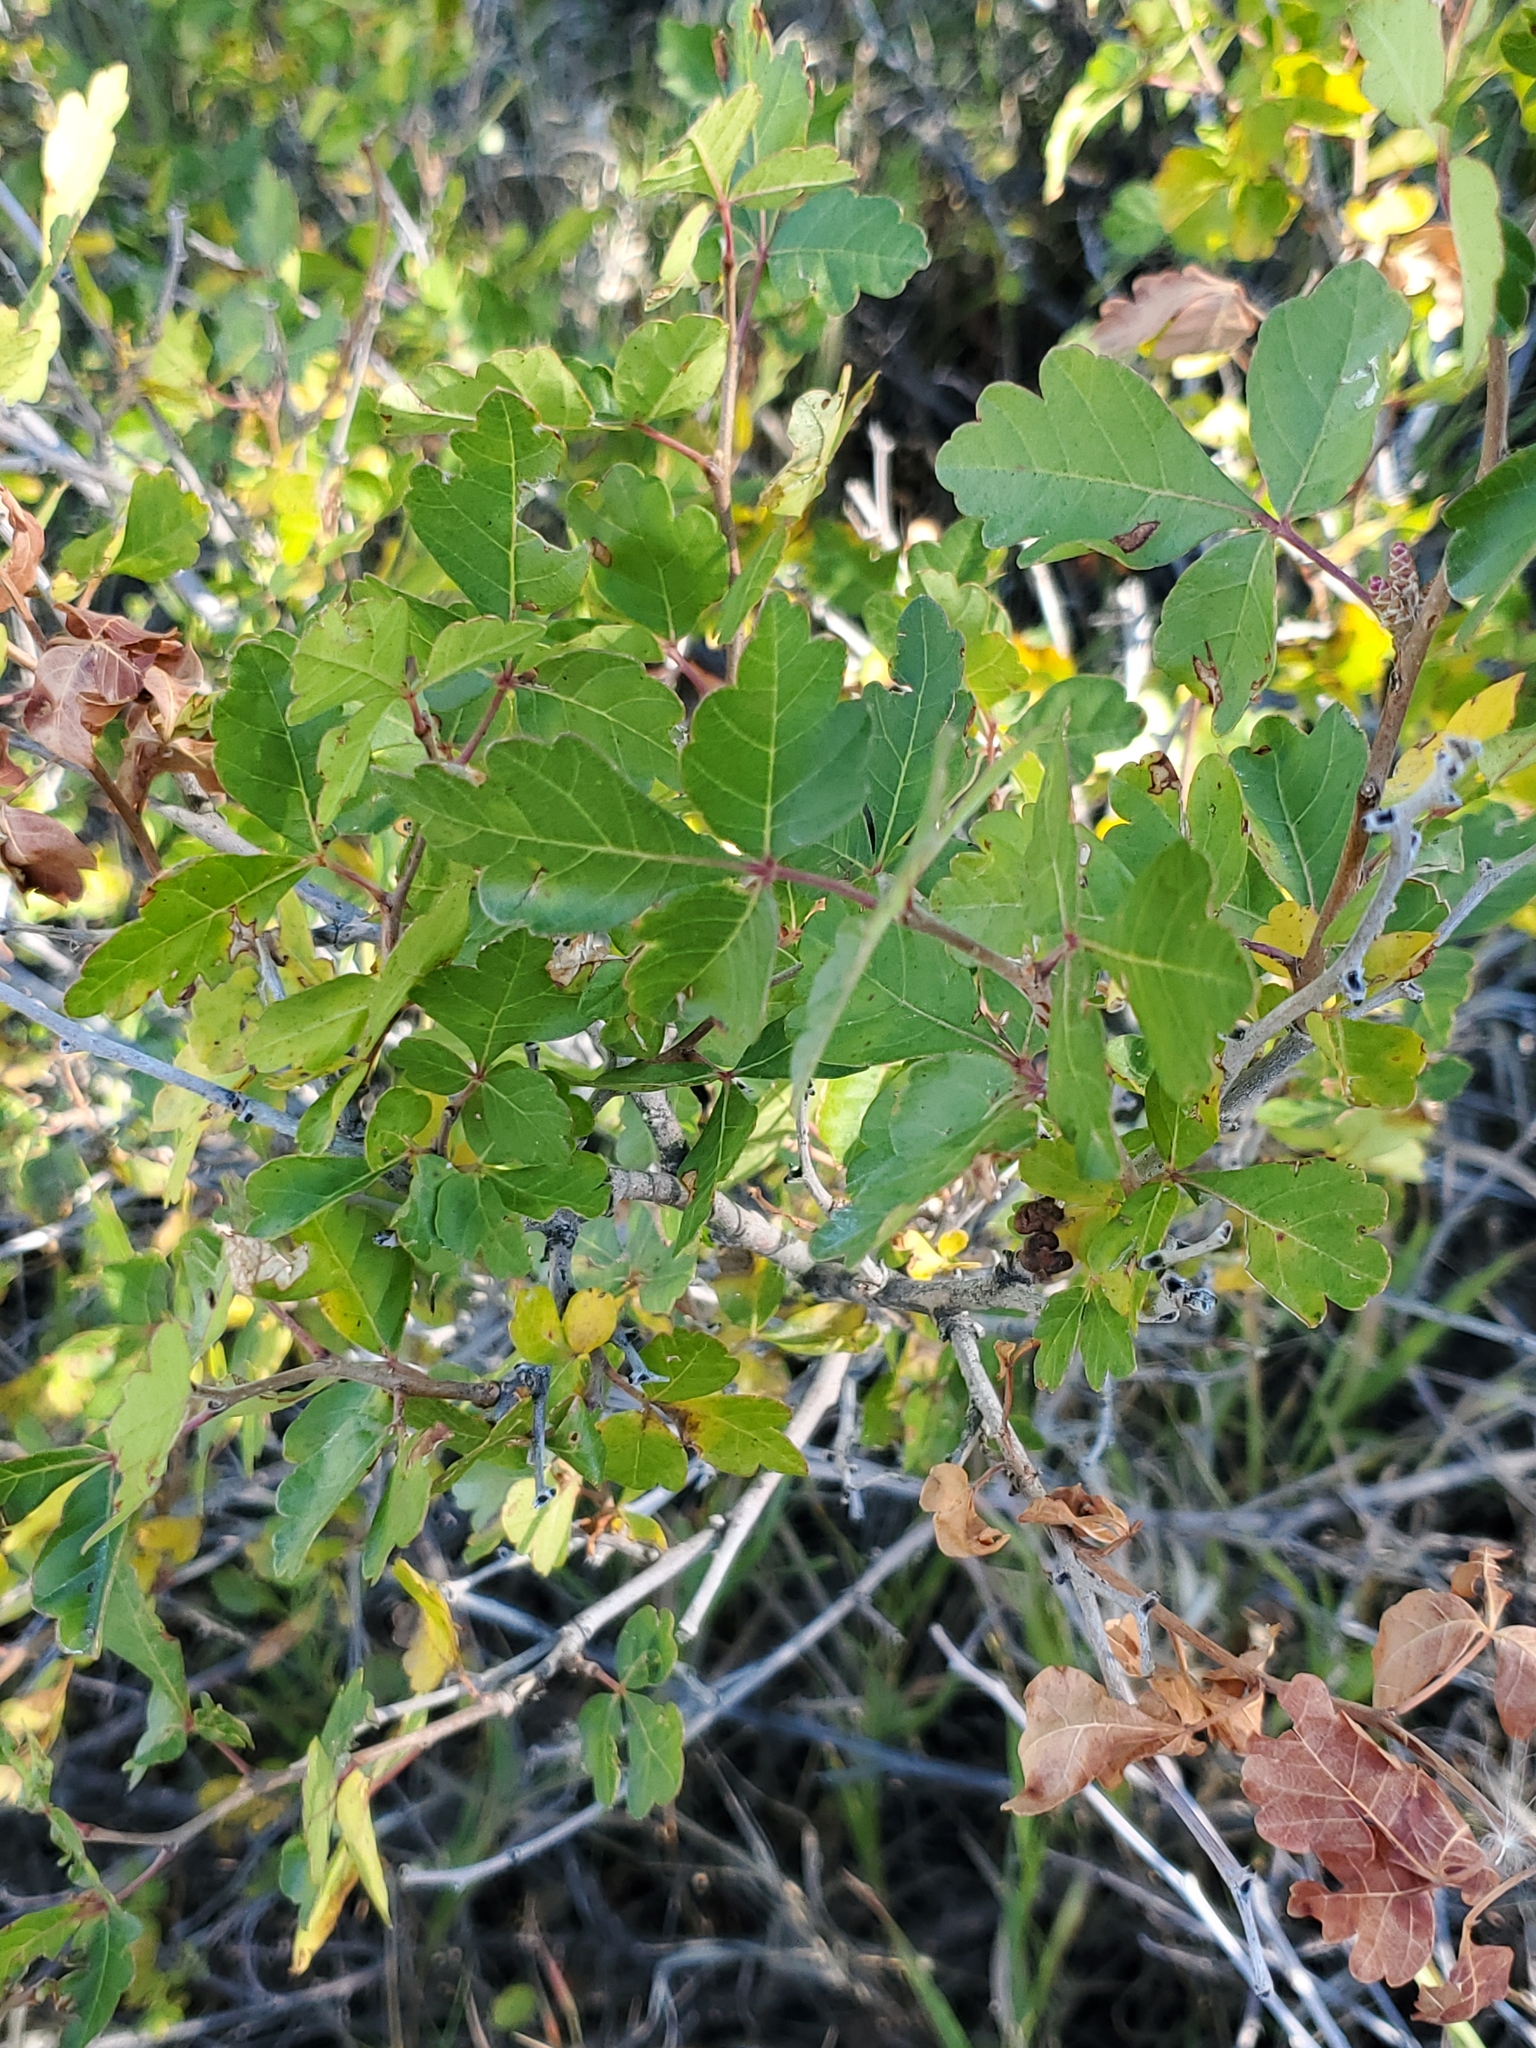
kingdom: Plantae
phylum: Tracheophyta
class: Magnoliopsida
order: Sapindales
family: Anacardiaceae
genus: Rhus
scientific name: Rhus aromatica
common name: Aromatic sumac
